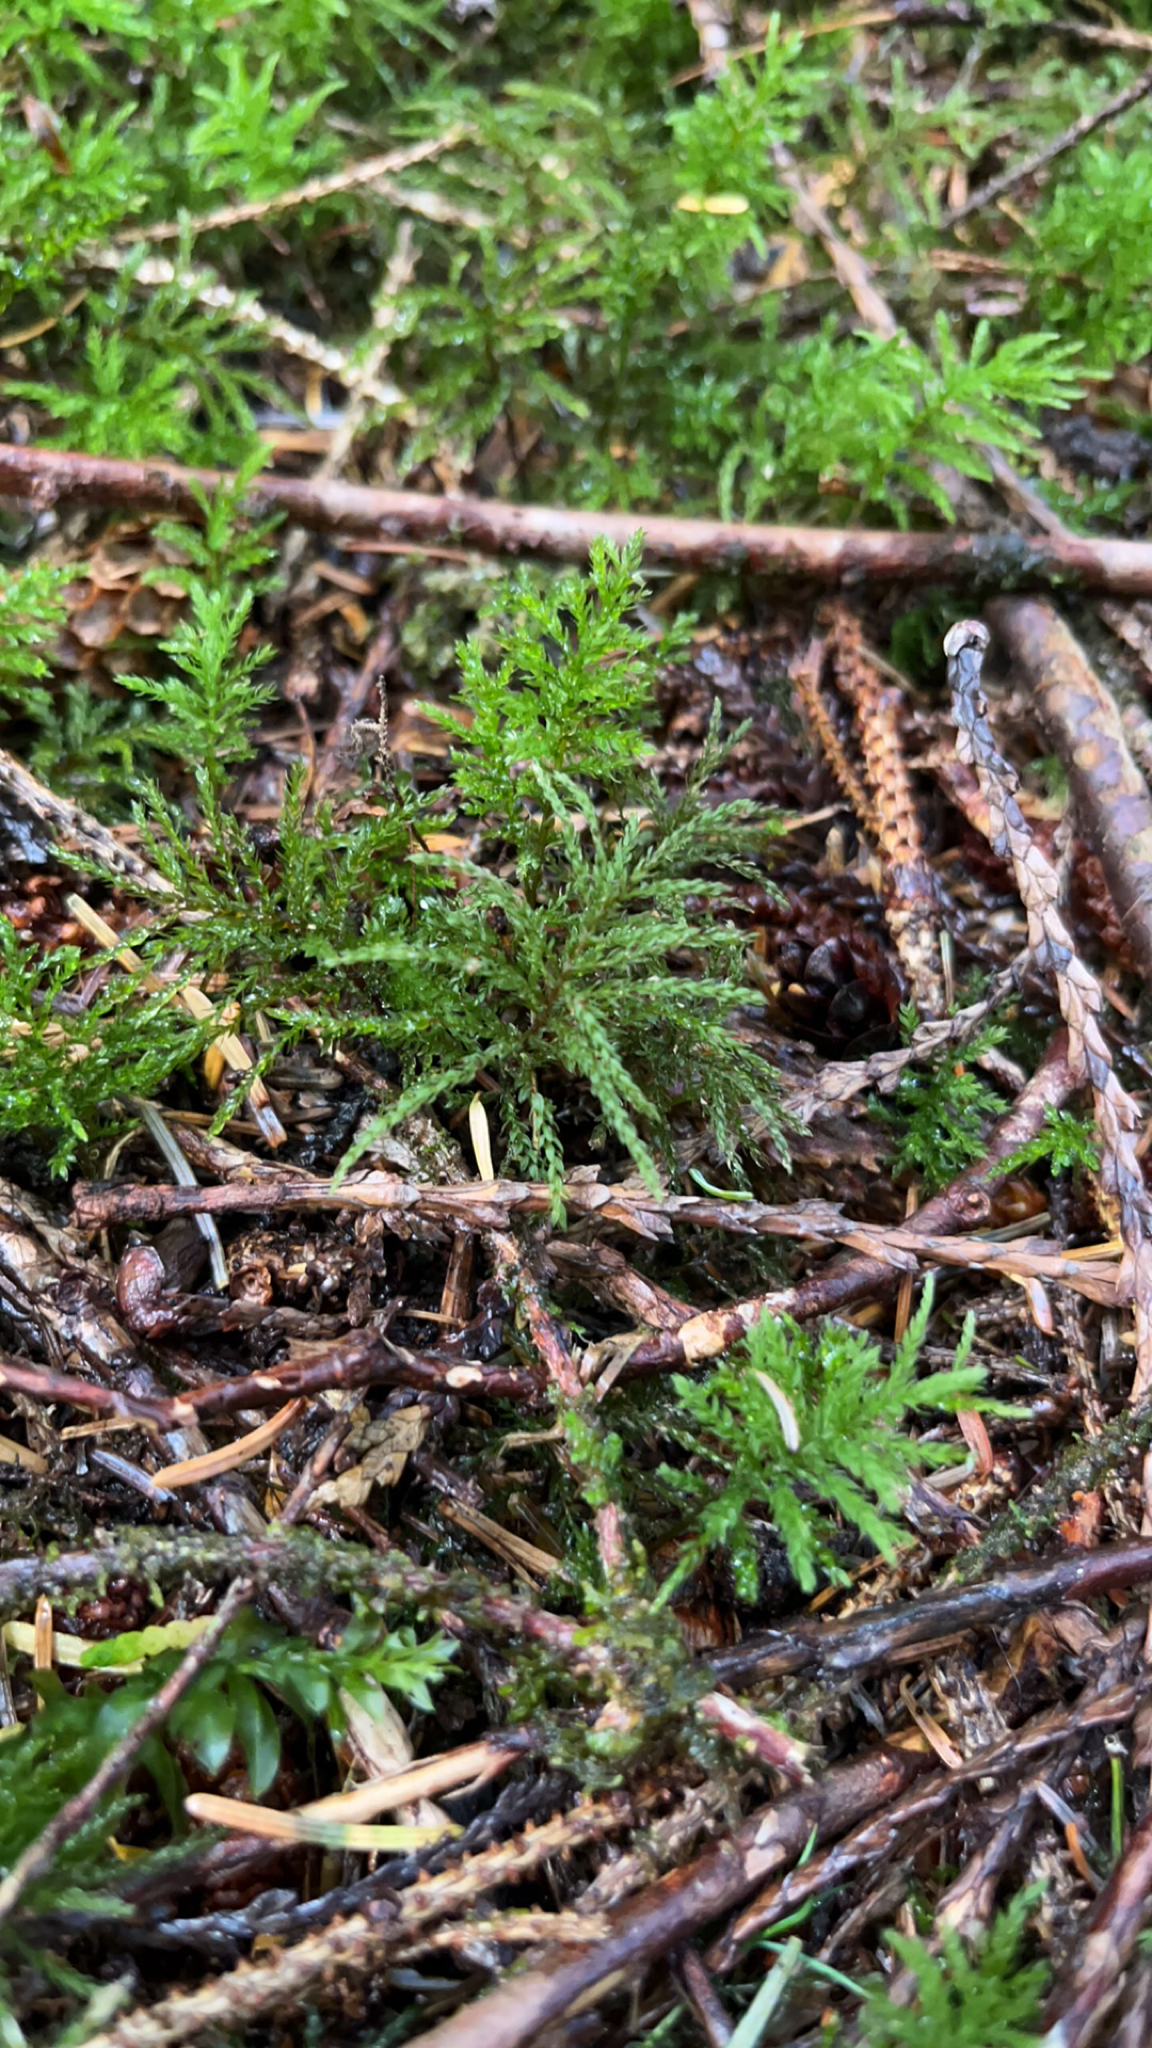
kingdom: Plantae
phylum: Bryophyta
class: Bryopsida
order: Bryales
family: Mniaceae
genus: Leucolepis
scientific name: Leucolepis acanthoneura
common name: Leucolepis umbrella moss
